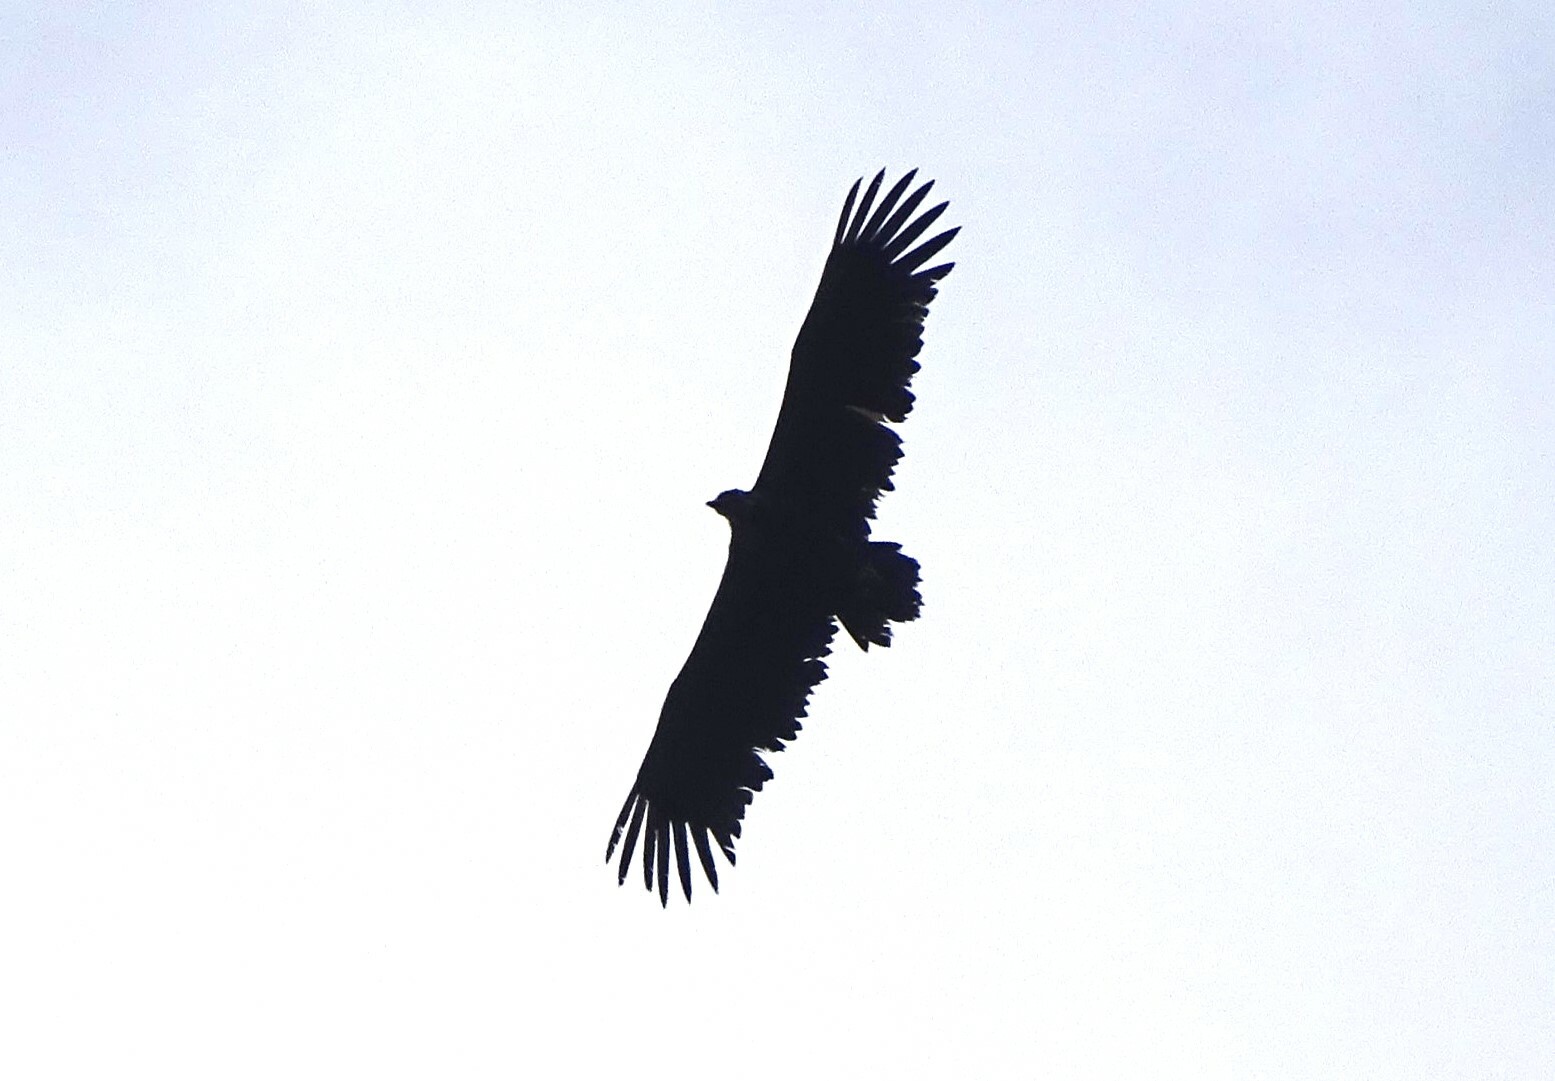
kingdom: Animalia
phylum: Chordata
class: Aves
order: Accipitriformes
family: Accipitridae
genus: Aegypius
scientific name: Aegypius monachus
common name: Cinereous vulture
